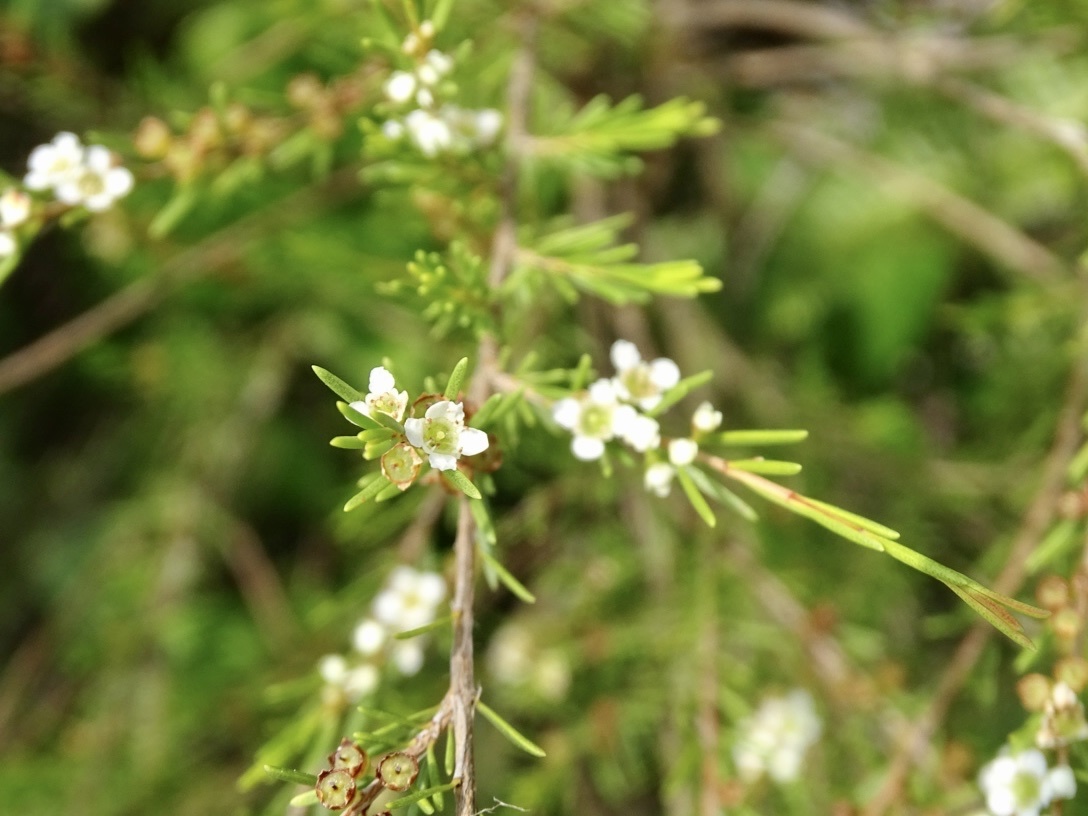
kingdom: Plantae
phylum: Tracheophyta
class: Magnoliopsida
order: Myrtales
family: Myrtaceae
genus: Baeckea
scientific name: Baeckea frutescens
